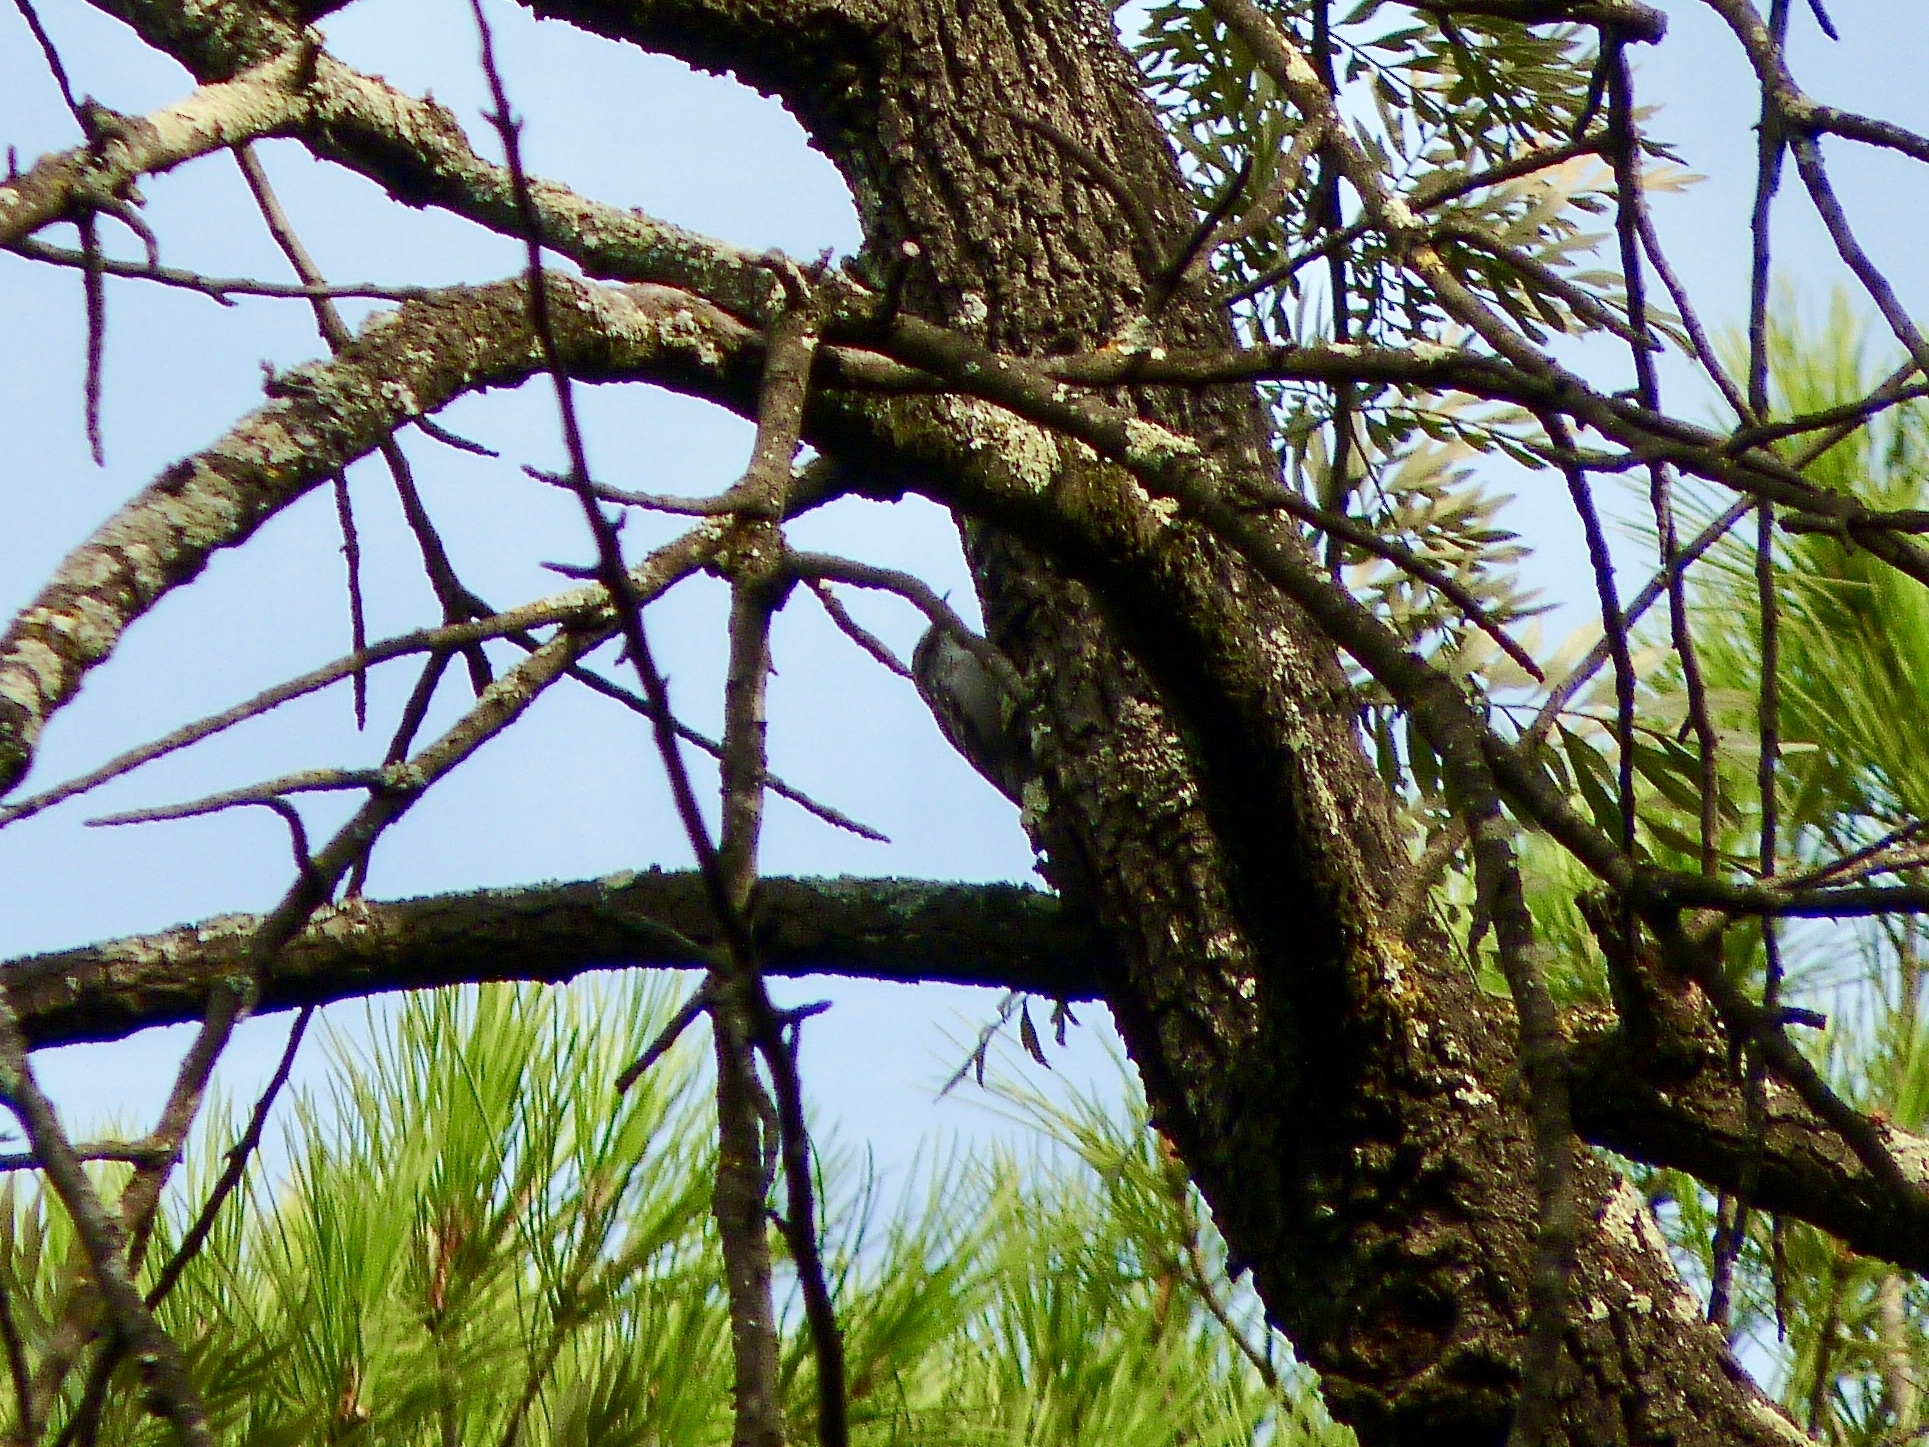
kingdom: Animalia
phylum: Chordata
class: Aves
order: Passeriformes
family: Certhiidae
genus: Certhia
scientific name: Certhia brachydactyla
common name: Short-toed treecreeper
